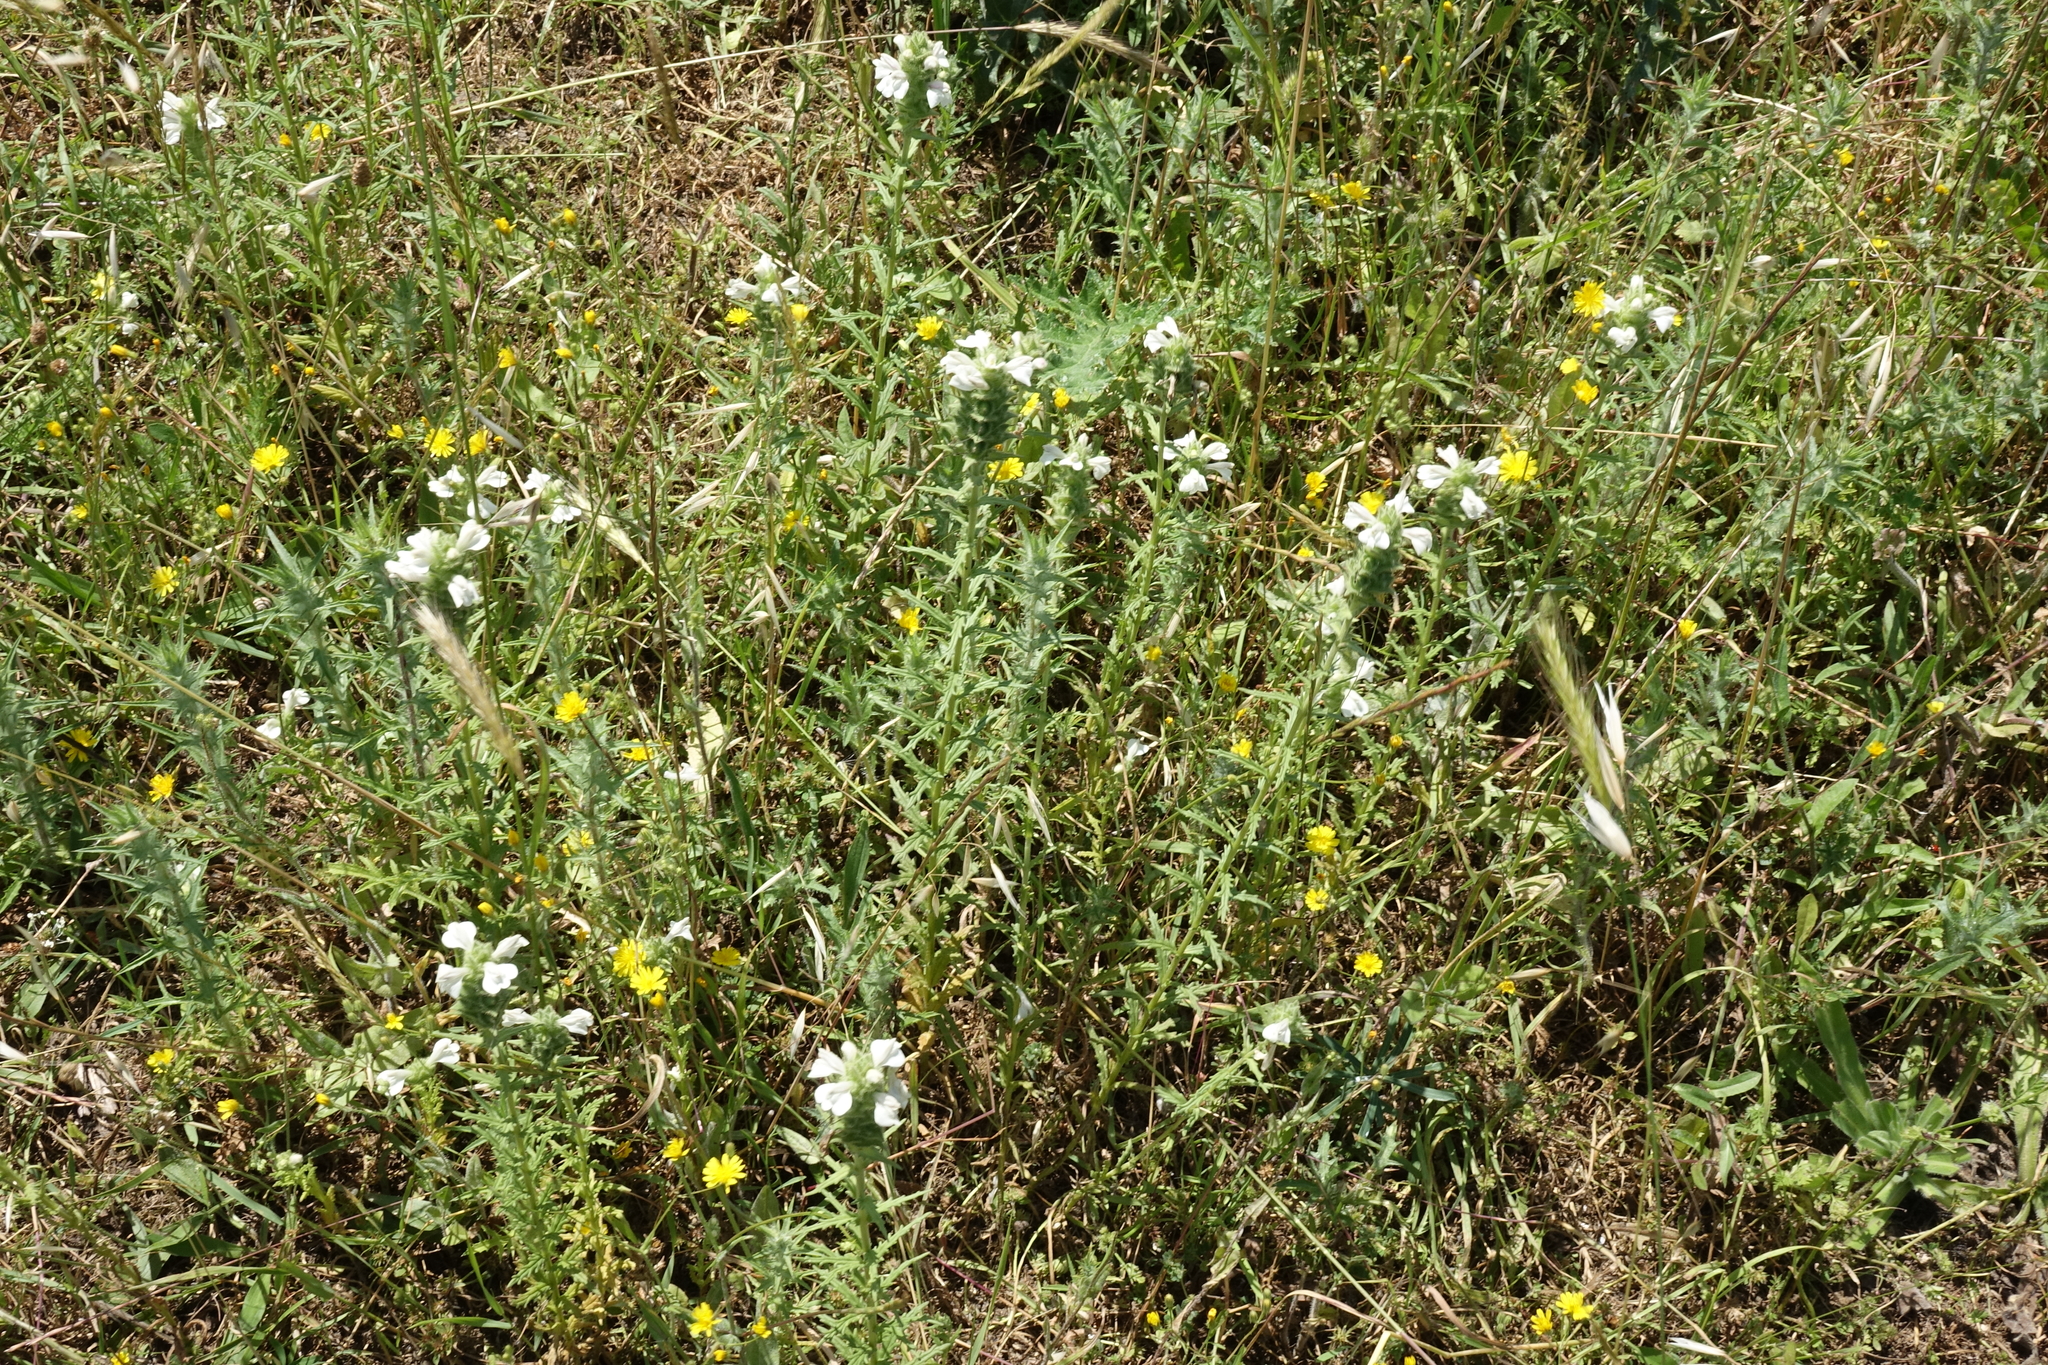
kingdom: Plantae
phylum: Tracheophyta
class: Magnoliopsida
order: Lamiales
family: Orobanchaceae
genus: Bellardia
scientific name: Bellardia trixago
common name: Mediterranean lineseed
